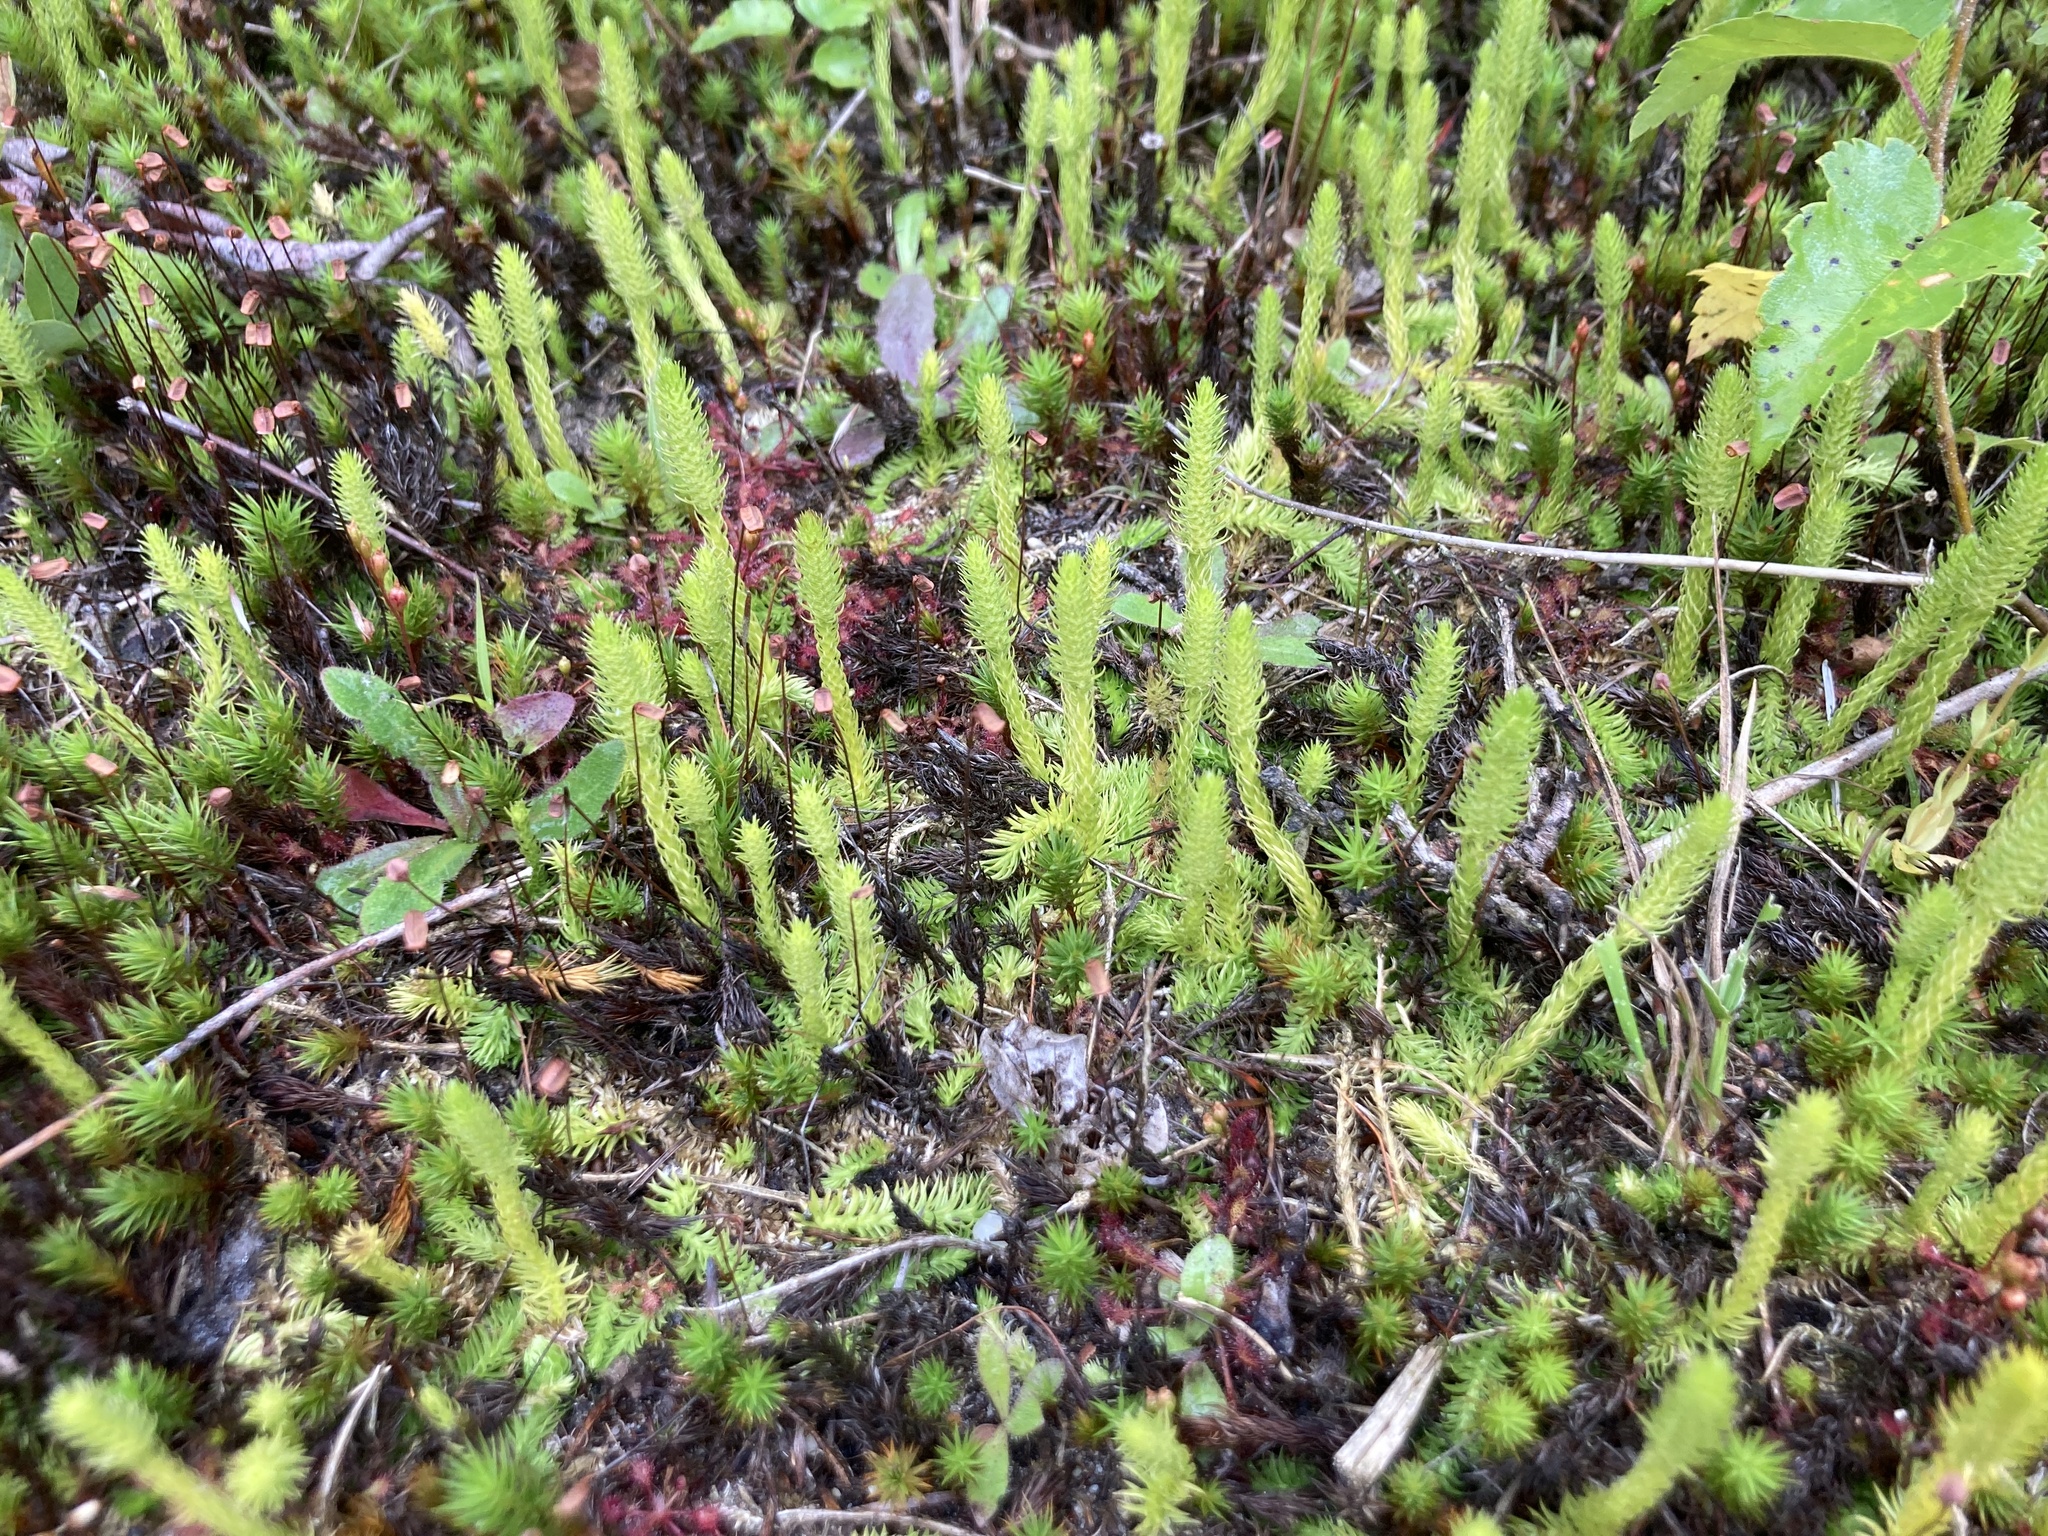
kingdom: Plantae
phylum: Tracheophyta
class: Lycopodiopsida
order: Lycopodiales
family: Lycopodiaceae
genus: Lycopodiella
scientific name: Lycopodiella inundata
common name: Marsh clubmoss
